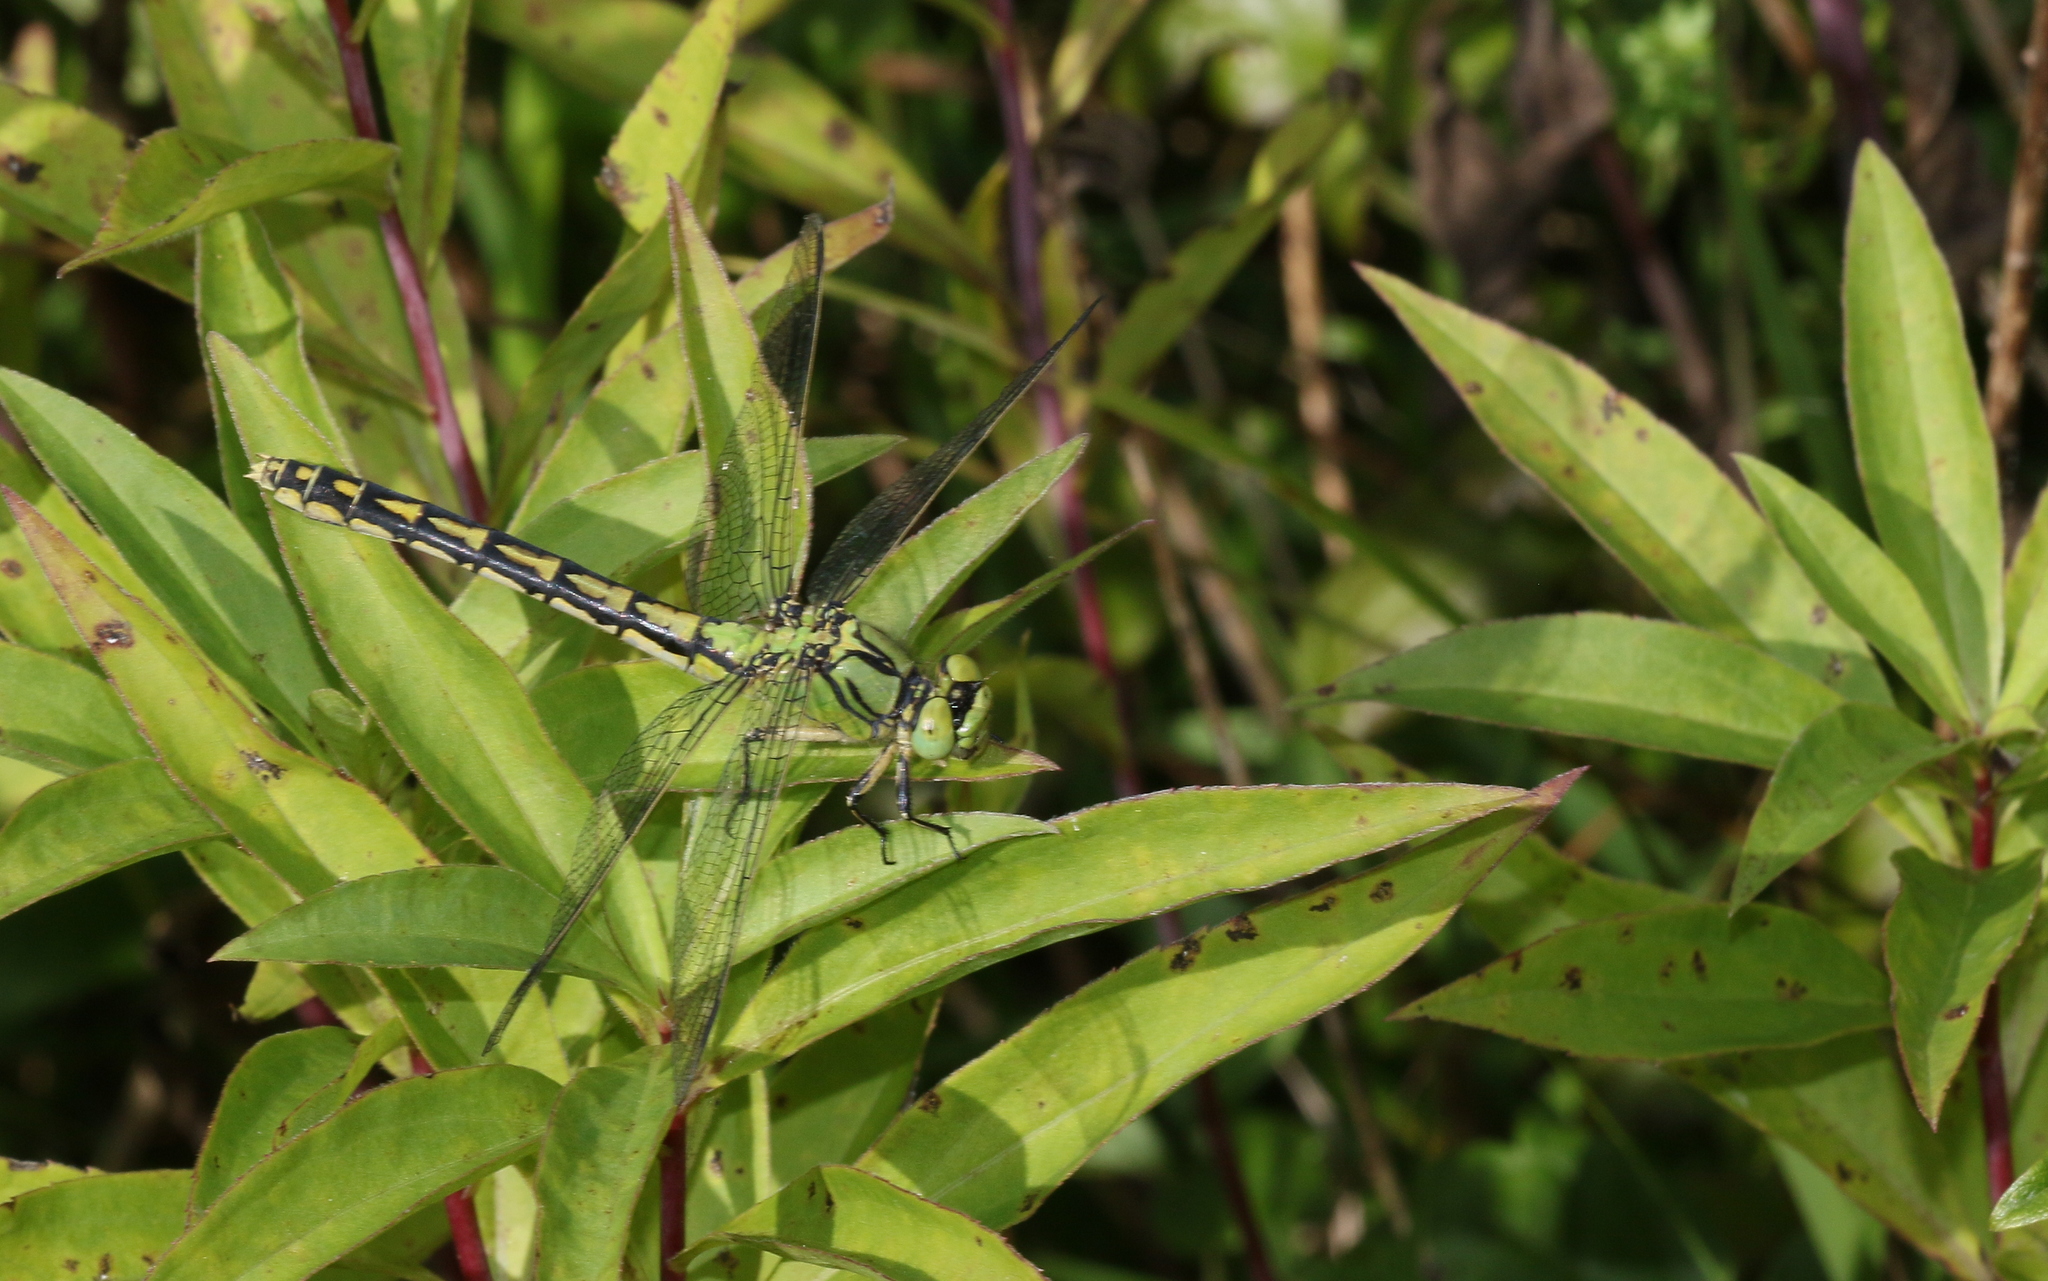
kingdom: Animalia
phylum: Arthropoda
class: Insecta
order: Odonata
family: Gomphidae
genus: Ophiogomphus
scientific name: Ophiogomphus cecilia
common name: Green snaketail
